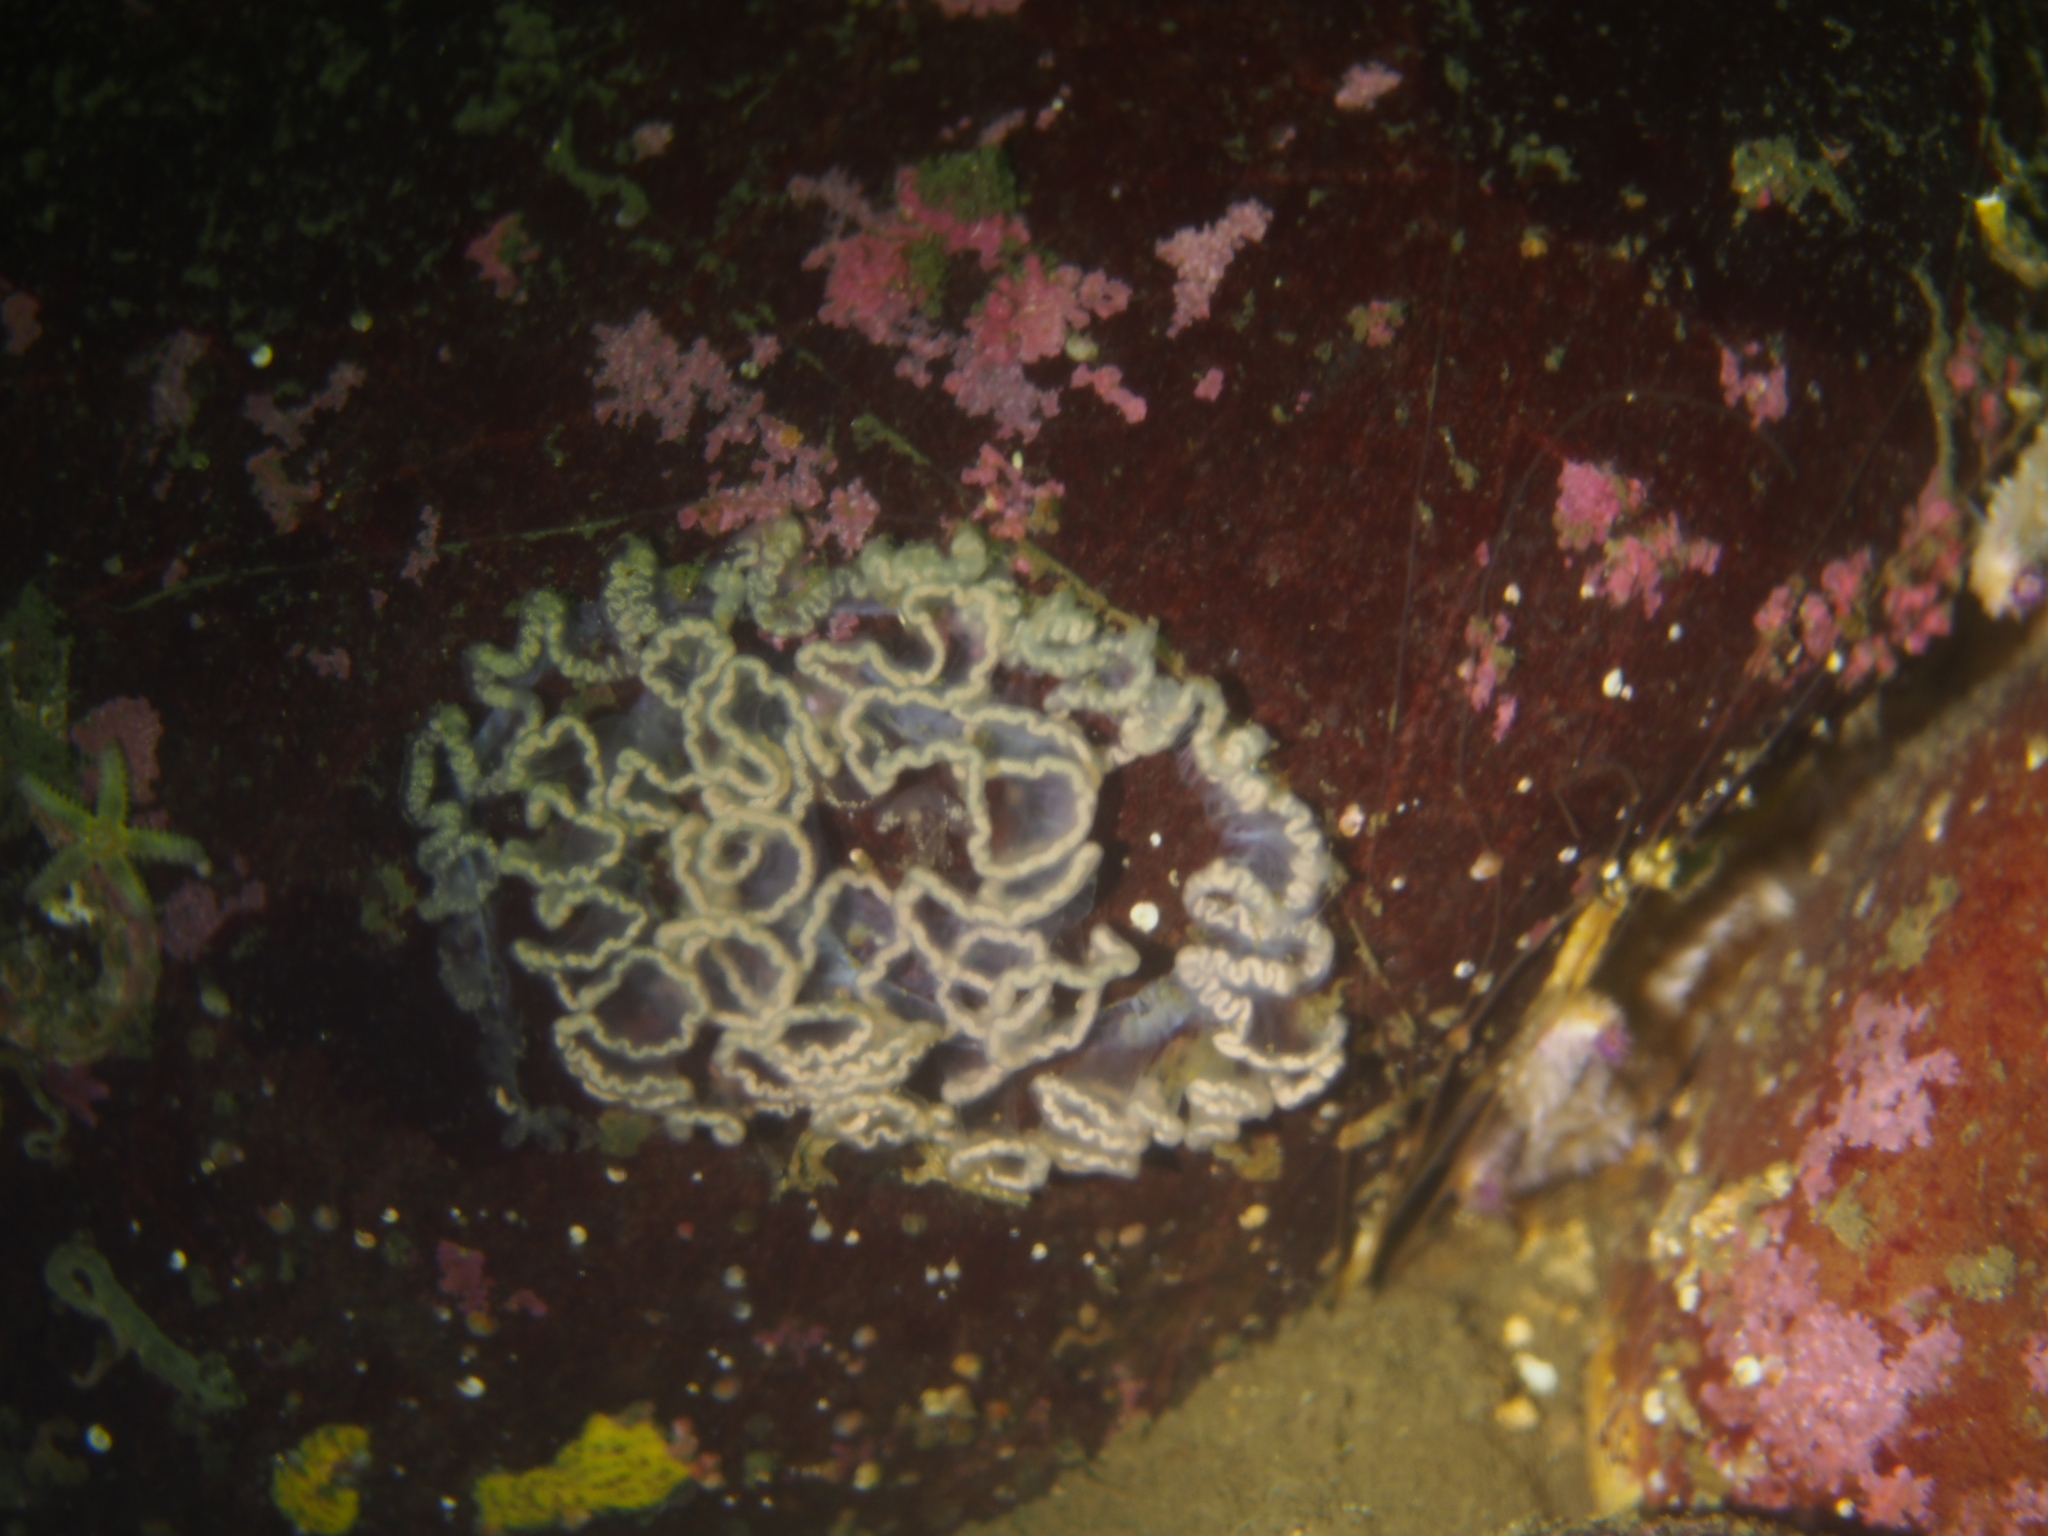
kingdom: Animalia
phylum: Mollusca
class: Gastropoda
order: Nudibranchia
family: Tritoniidae
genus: Tritonia
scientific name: Tritonia hombergii
